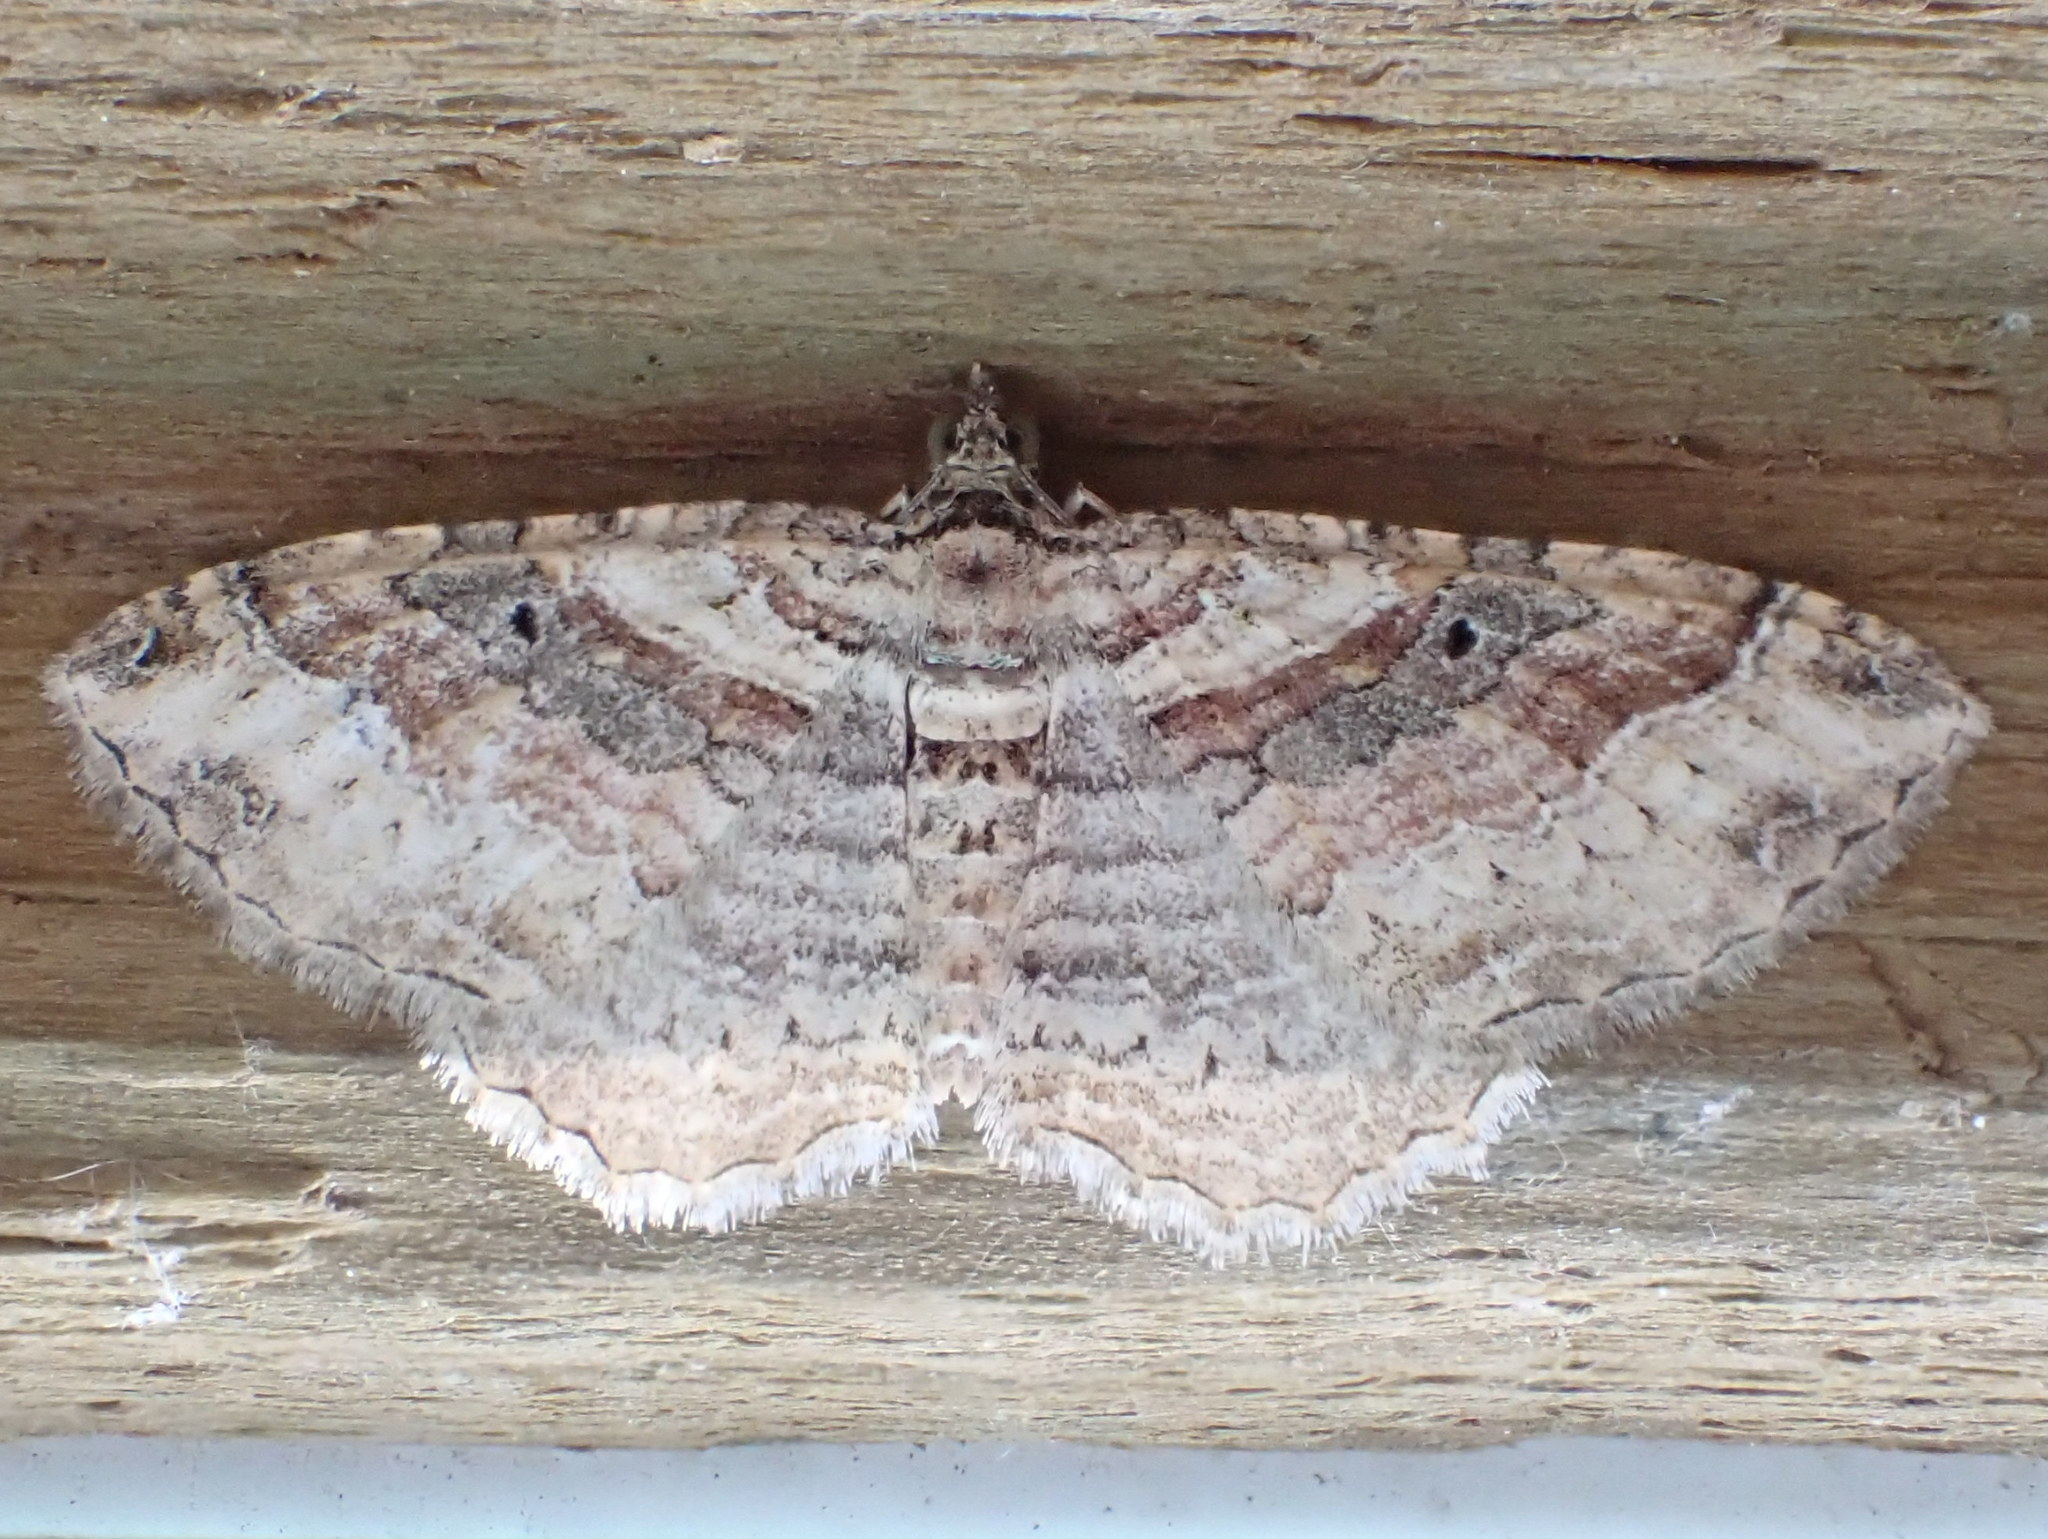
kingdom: Animalia
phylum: Arthropoda
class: Insecta
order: Lepidoptera
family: Geometridae
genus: Costaconvexa
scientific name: Costaconvexa centrostrigaria
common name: Bent-line carpet
